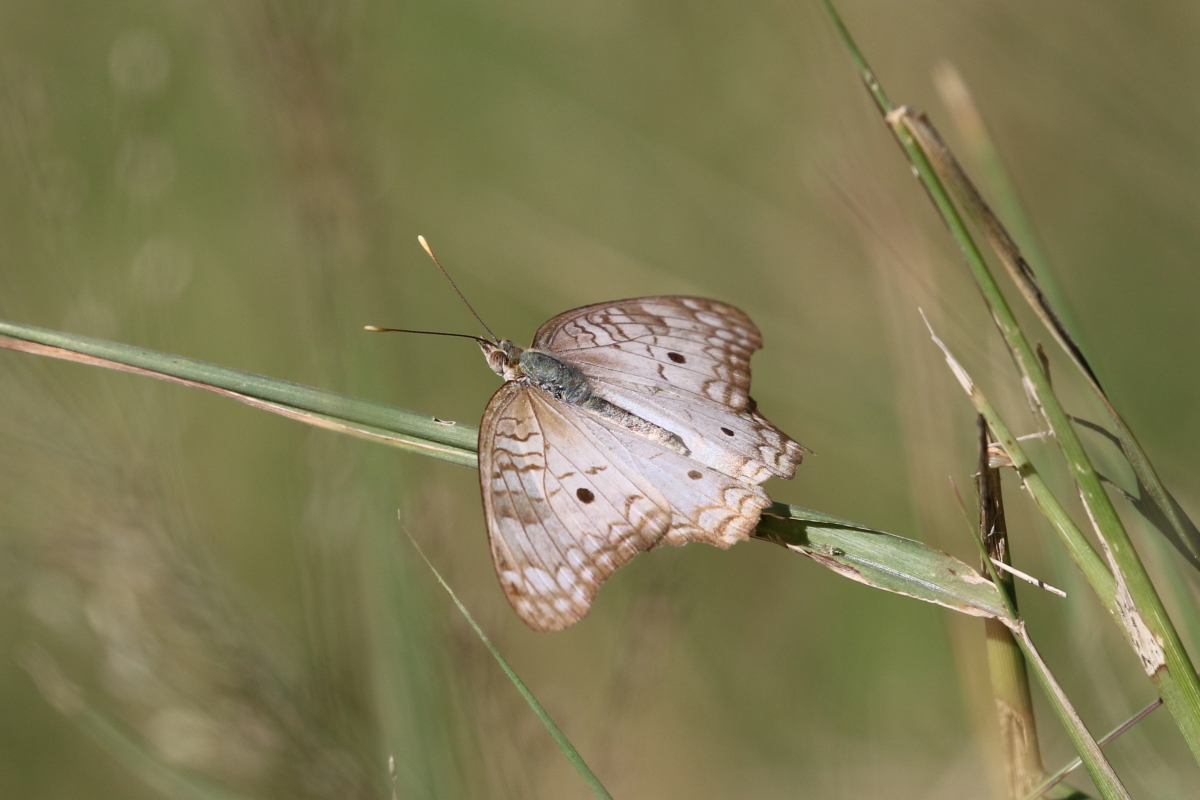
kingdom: Animalia
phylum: Arthropoda
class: Insecta
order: Lepidoptera
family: Nymphalidae
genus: Anartia
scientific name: Anartia jatrophae
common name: White peacock
